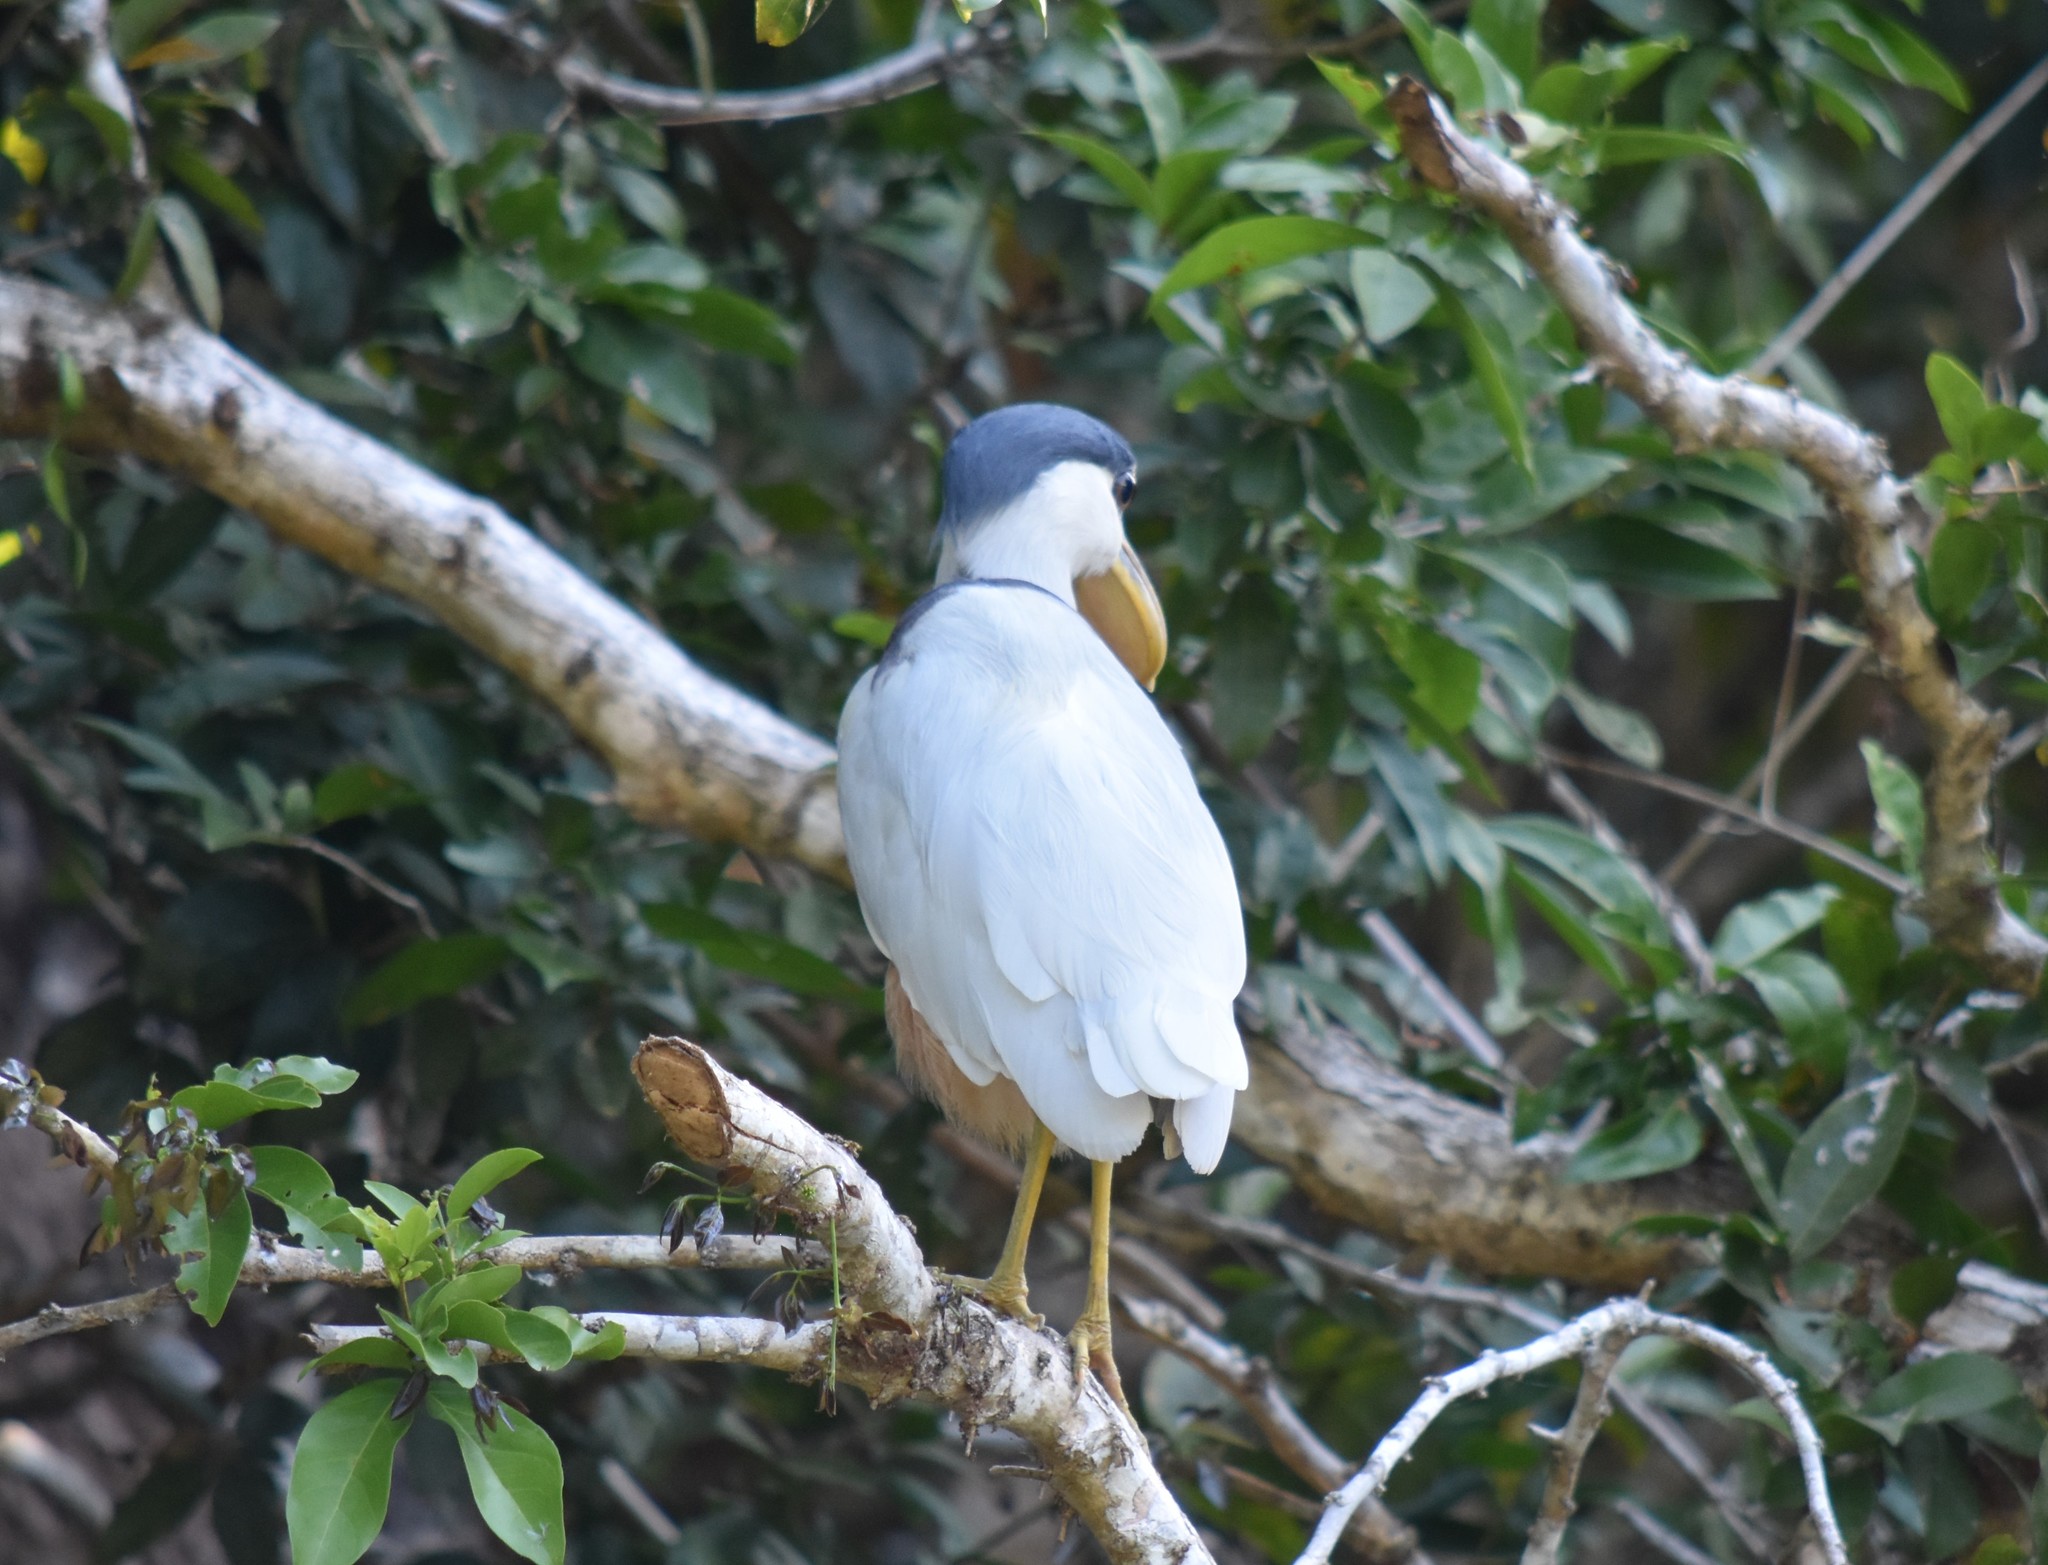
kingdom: Animalia
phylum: Chordata
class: Aves
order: Pelecaniformes
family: Ardeidae
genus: Cochlearius
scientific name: Cochlearius cochlearius
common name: Boat-billed heron
